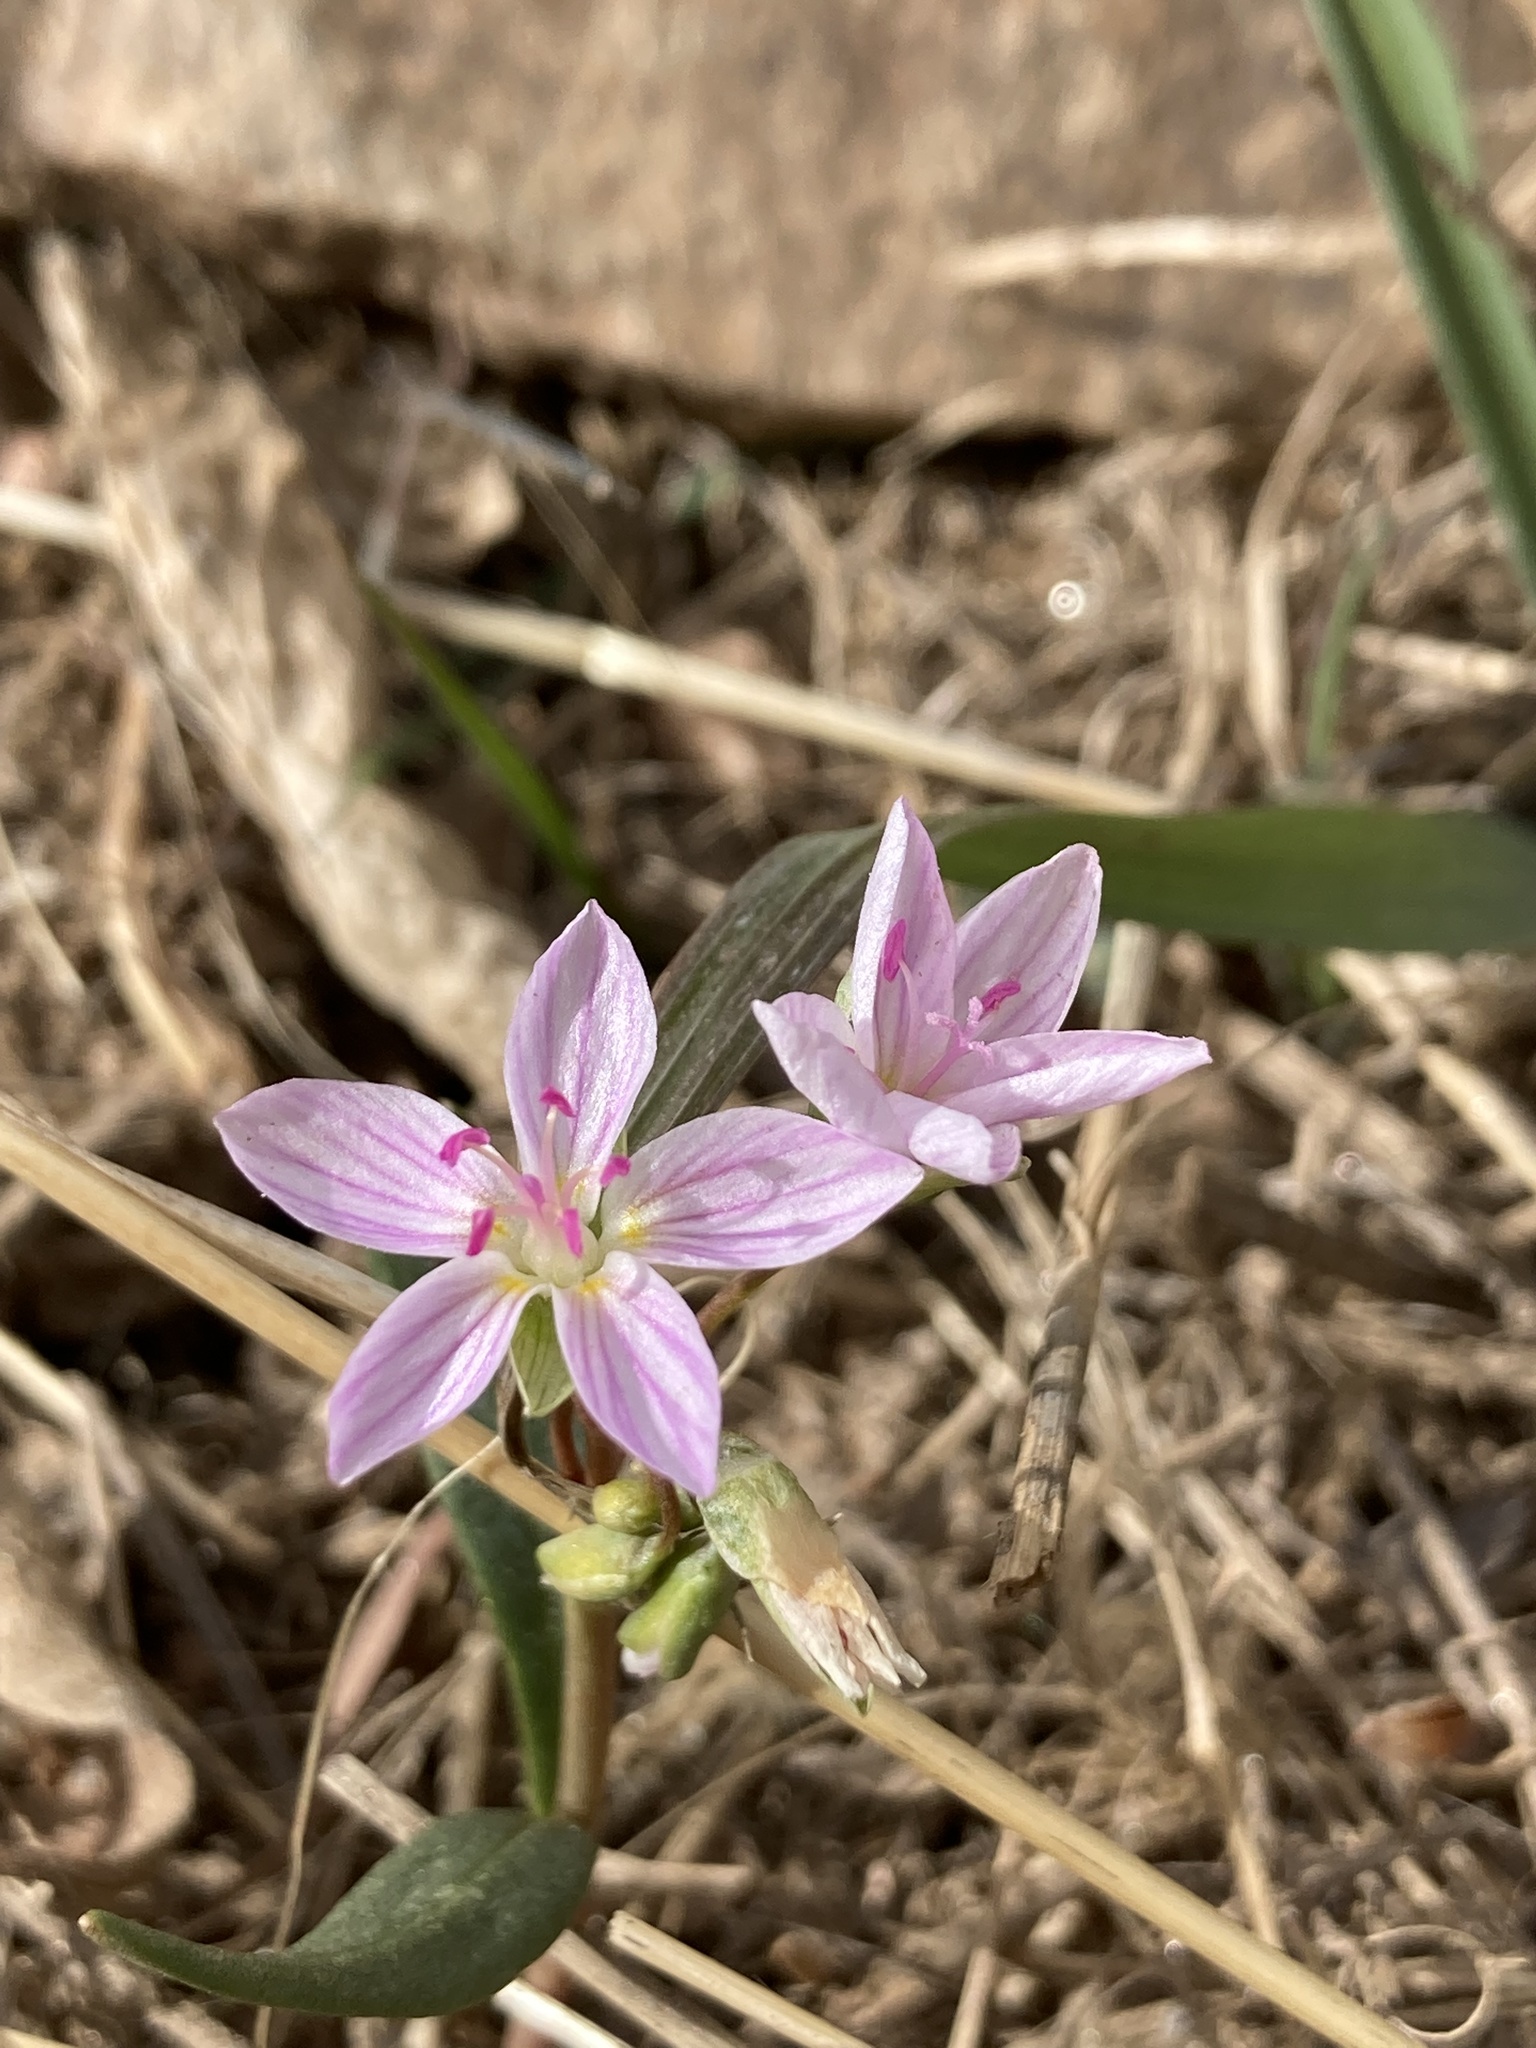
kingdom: Plantae
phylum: Tracheophyta
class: Magnoliopsida
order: Caryophyllales
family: Montiaceae
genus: Claytonia
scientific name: Claytonia rosea
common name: Rocky mountain spring-beauty
